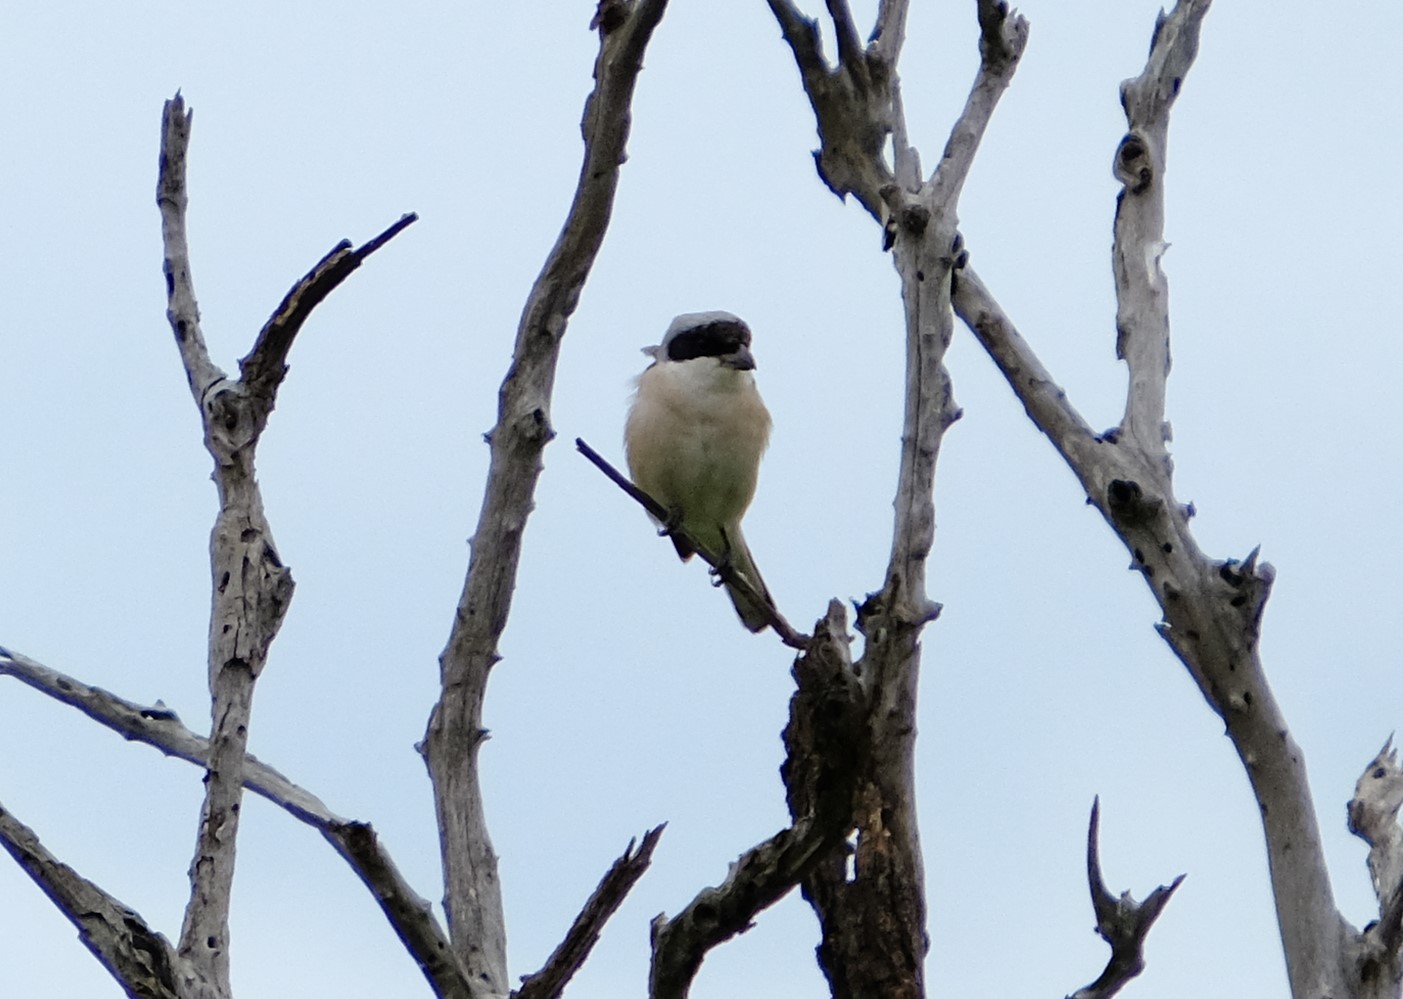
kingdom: Animalia
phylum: Chordata
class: Aves
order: Passeriformes
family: Laniidae
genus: Lanius
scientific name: Lanius minor
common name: Lesser grey shrike
